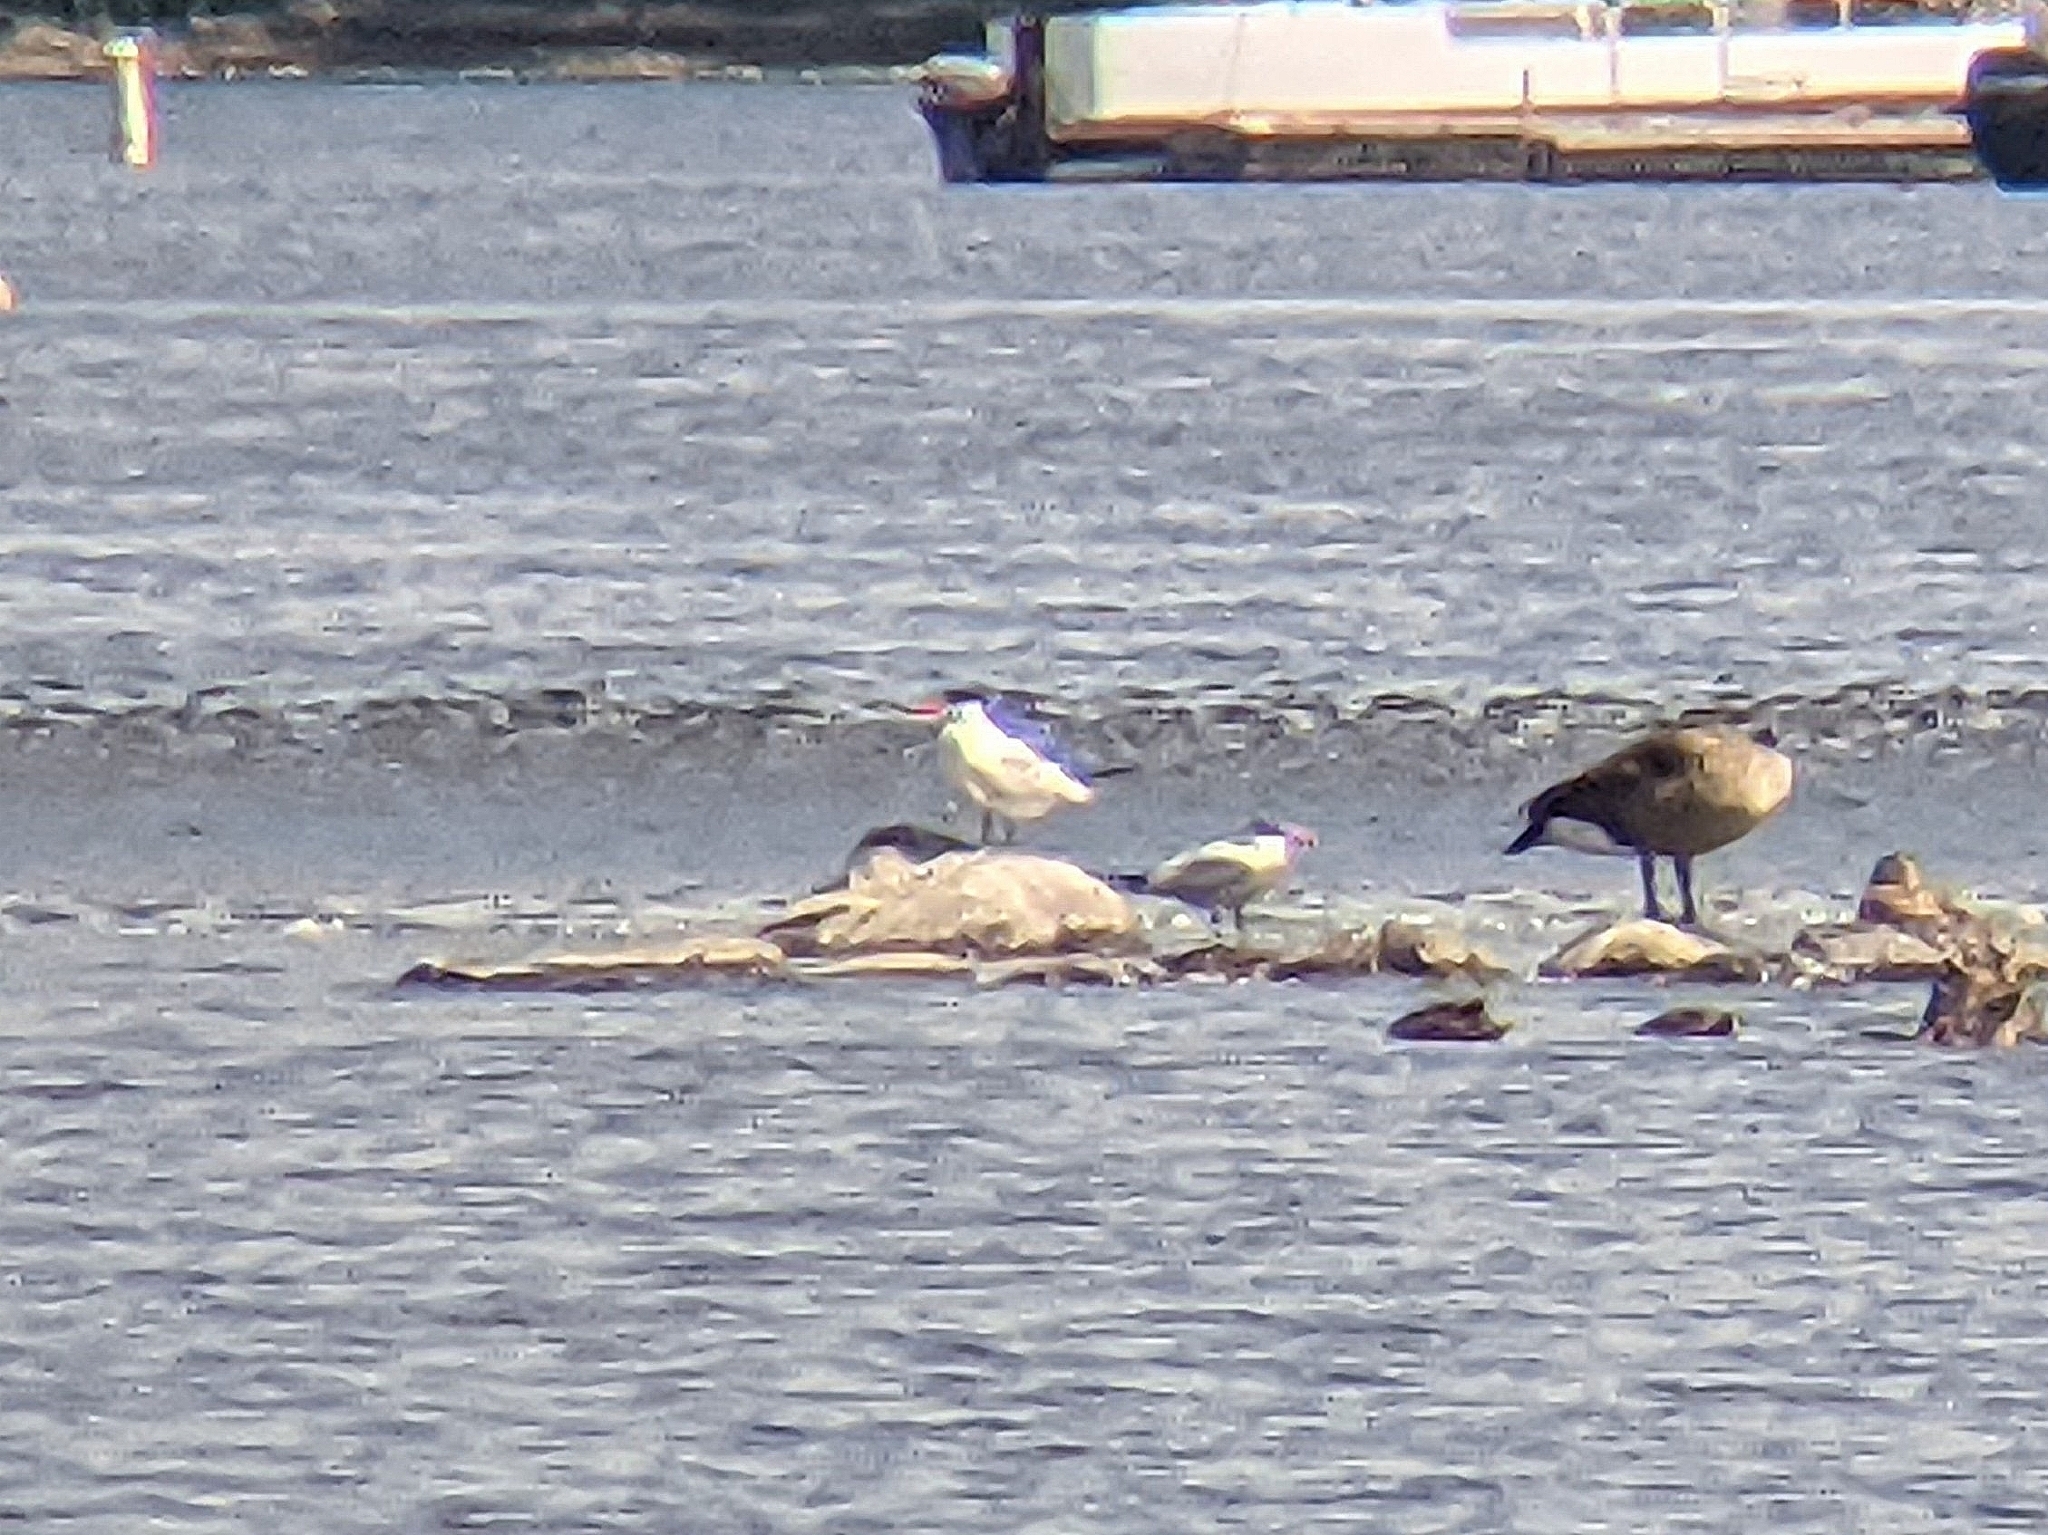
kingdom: Animalia
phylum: Chordata
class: Aves
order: Charadriiformes
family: Laridae
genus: Hydroprogne
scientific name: Hydroprogne caspia
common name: Caspian tern
